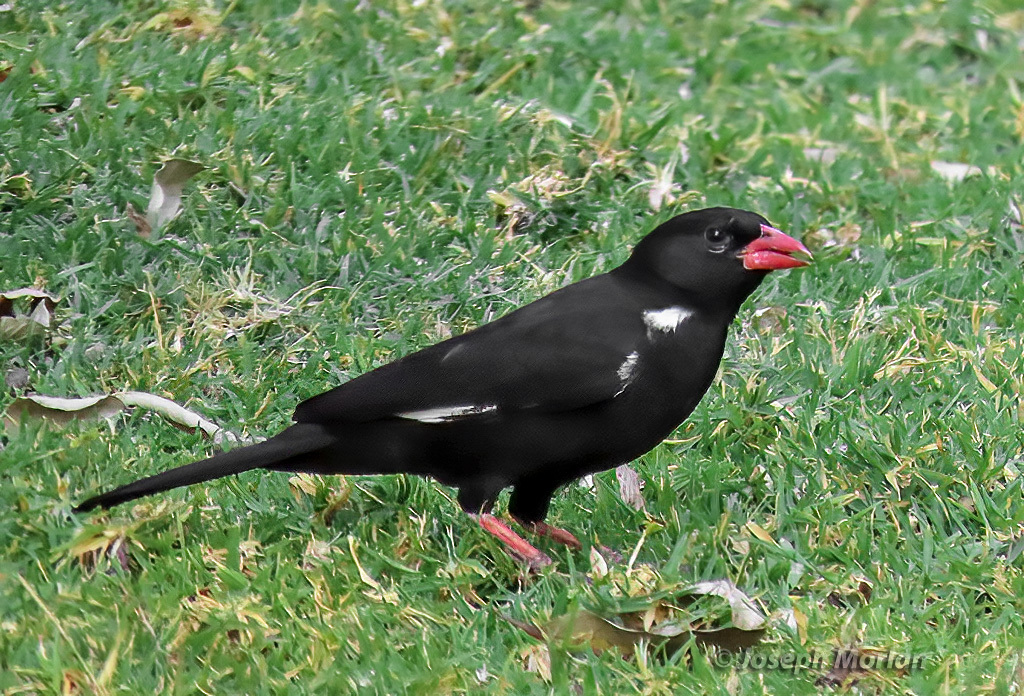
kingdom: Animalia
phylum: Chordata
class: Aves
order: Passeriformes
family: Ploceidae
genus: Bubalornis
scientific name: Bubalornis niger
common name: Red-billed buffalo weaver
